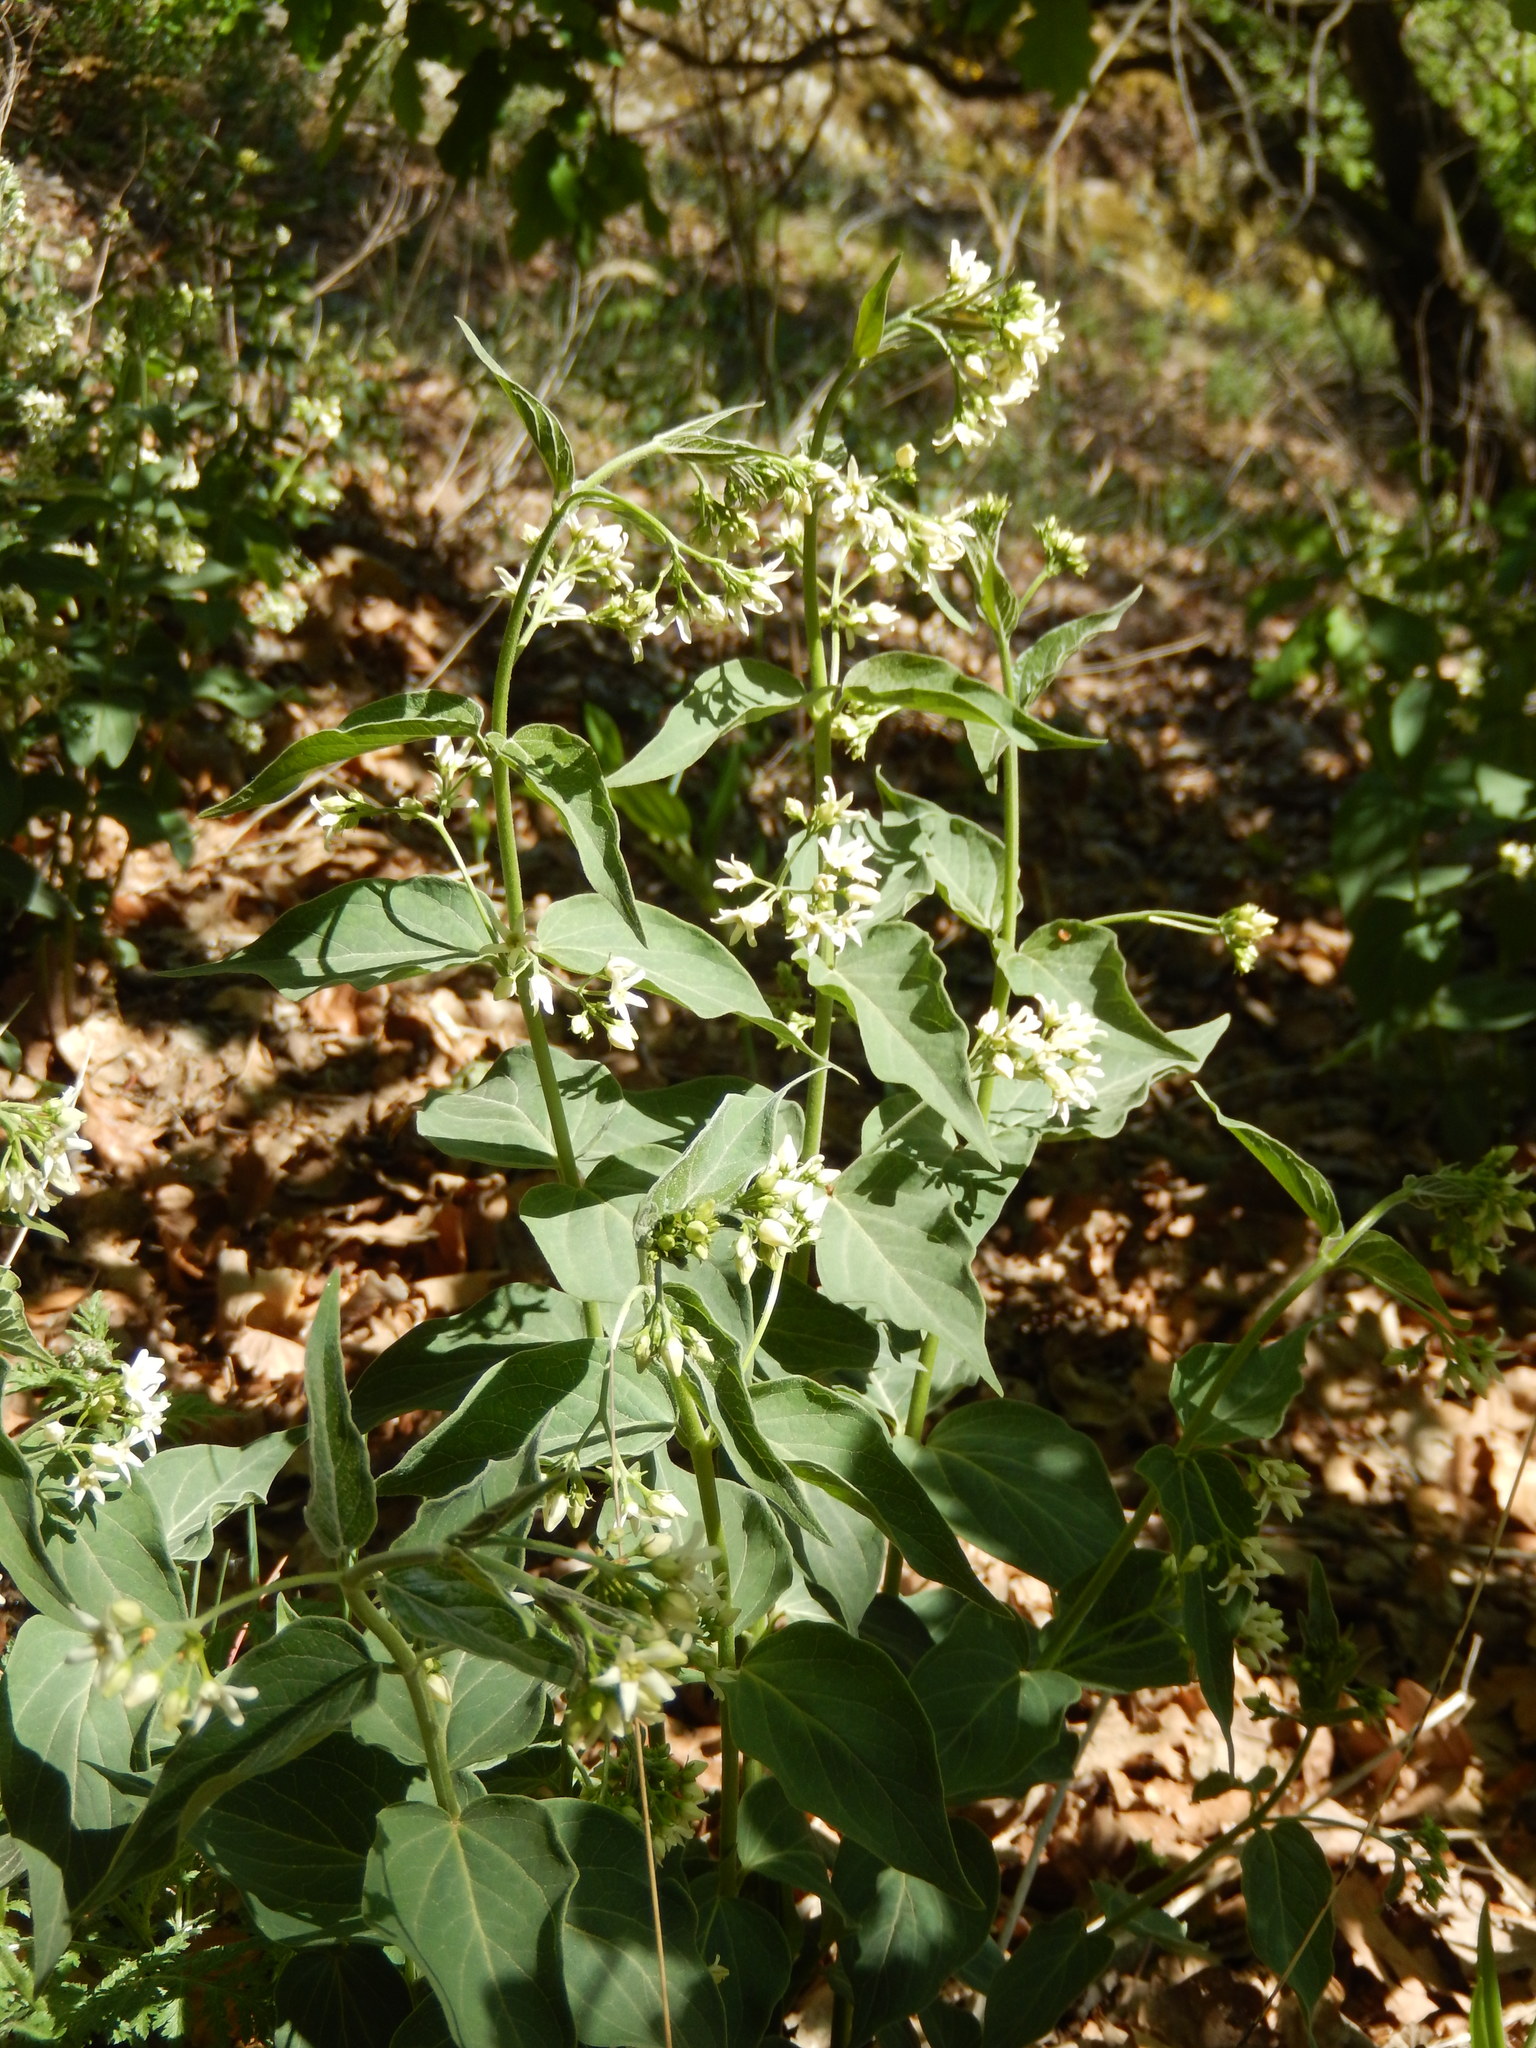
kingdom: Plantae
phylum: Tracheophyta
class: Magnoliopsida
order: Gentianales
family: Apocynaceae
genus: Vincetoxicum
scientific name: Vincetoxicum hirundinaria
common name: White swallowwort
